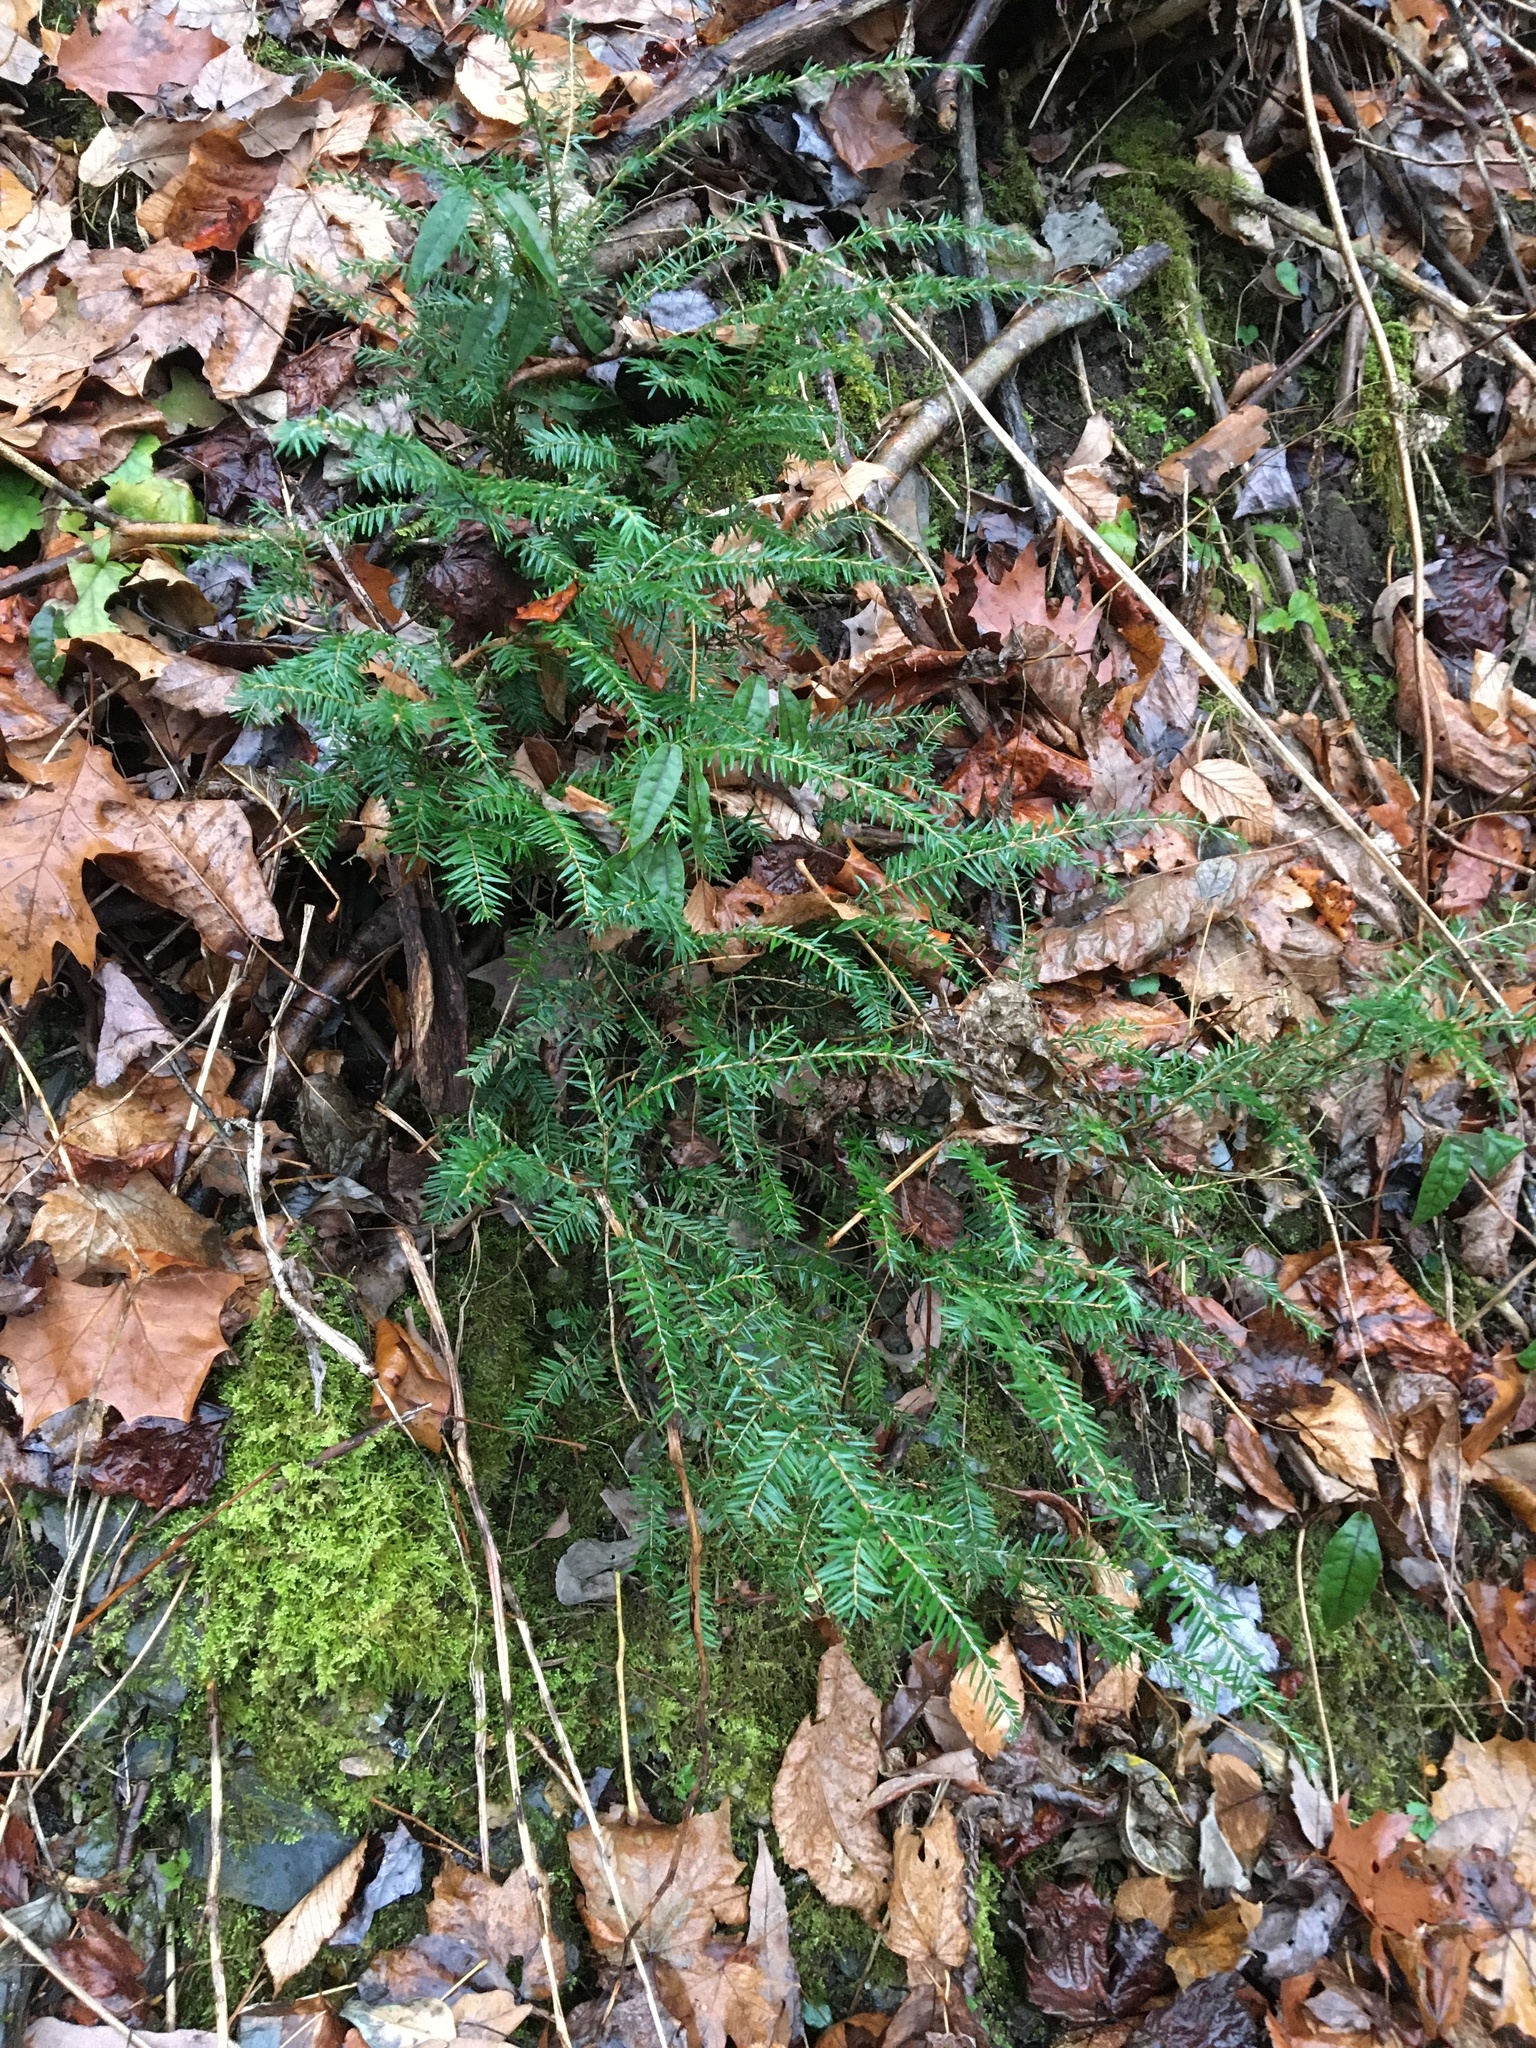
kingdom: Plantae
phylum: Tracheophyta
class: Pinopsida
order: Pinales
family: Pinaceae
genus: Tsuga
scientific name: Tsuga canadensis
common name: Eastern hemlock
